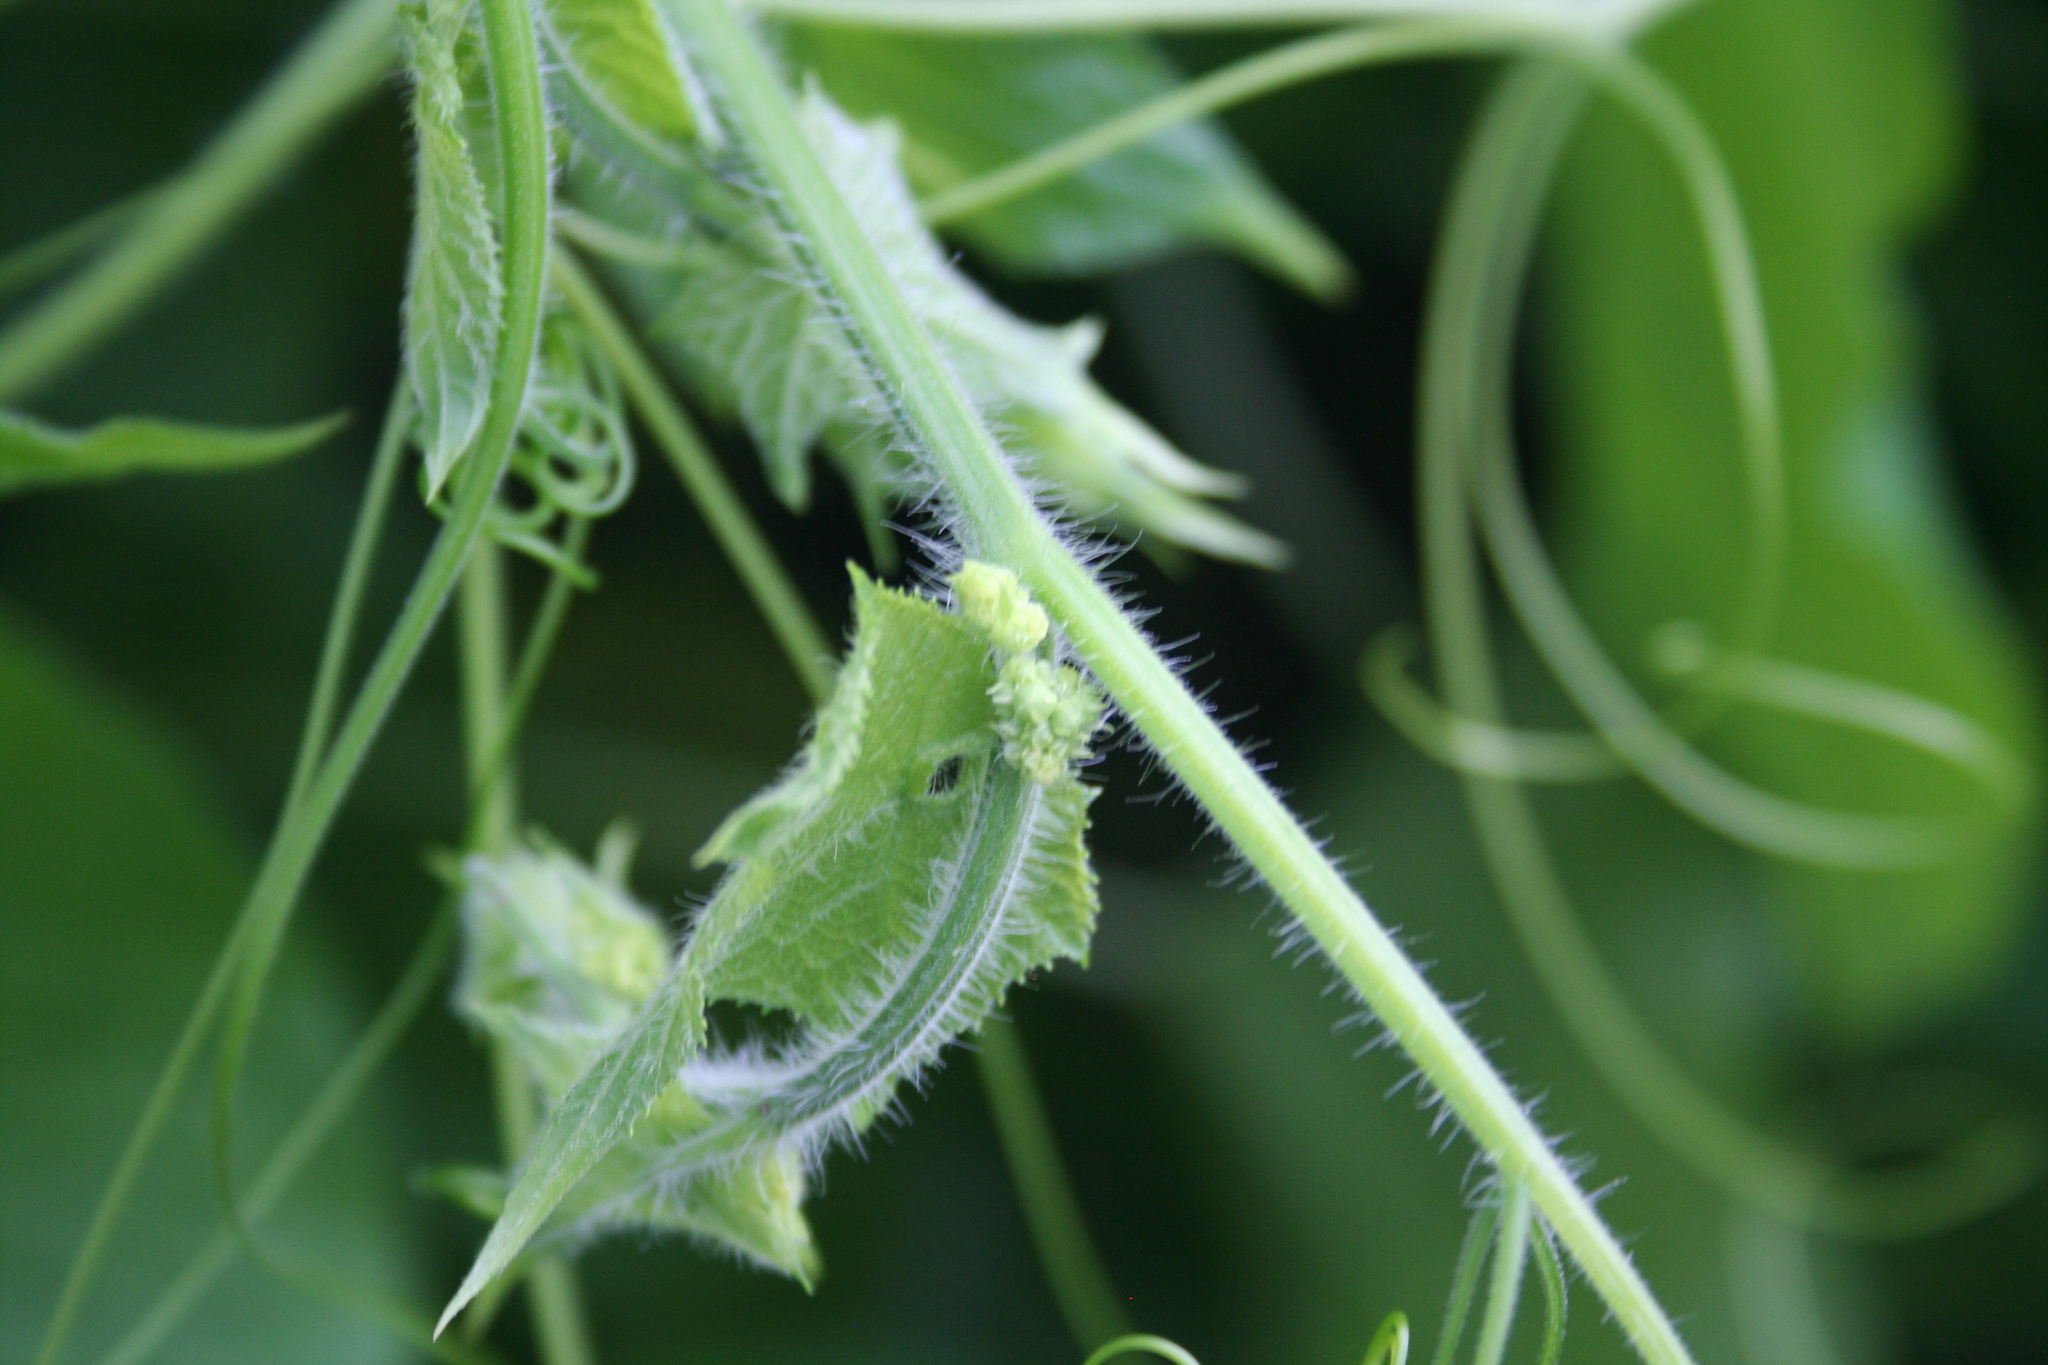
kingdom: Plantae
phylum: Tracheophyta
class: Magnoliopsida
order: Cucurbitales
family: Cucurbitaceae
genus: Sicyos
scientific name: Sicyos angulatus
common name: Angled burr cucumber
